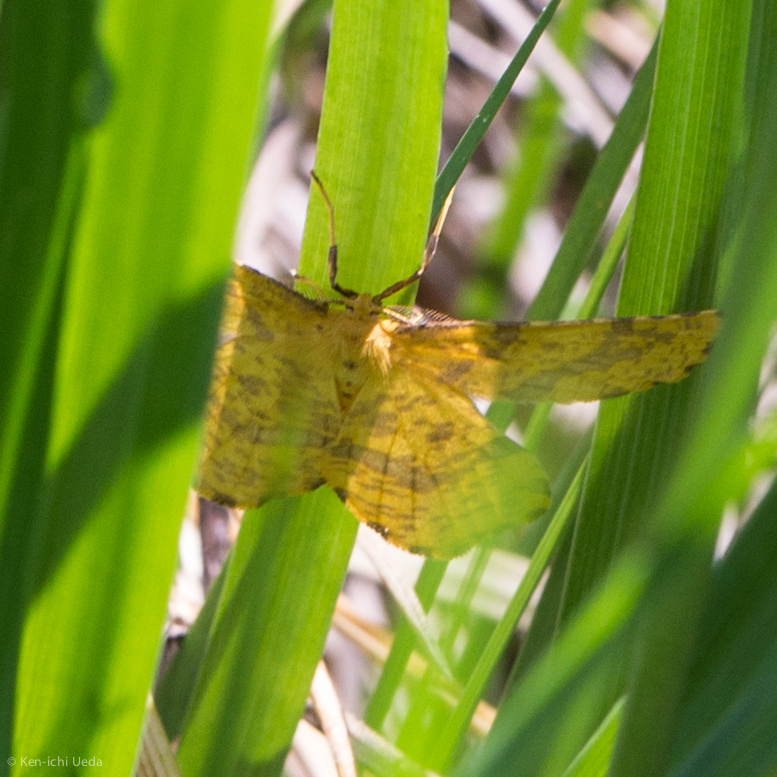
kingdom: Animalia
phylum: Arthropoda
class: Insecta
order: Lepidoptera
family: Geometridae
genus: Xanthotype
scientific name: Xanthotype barnesi
